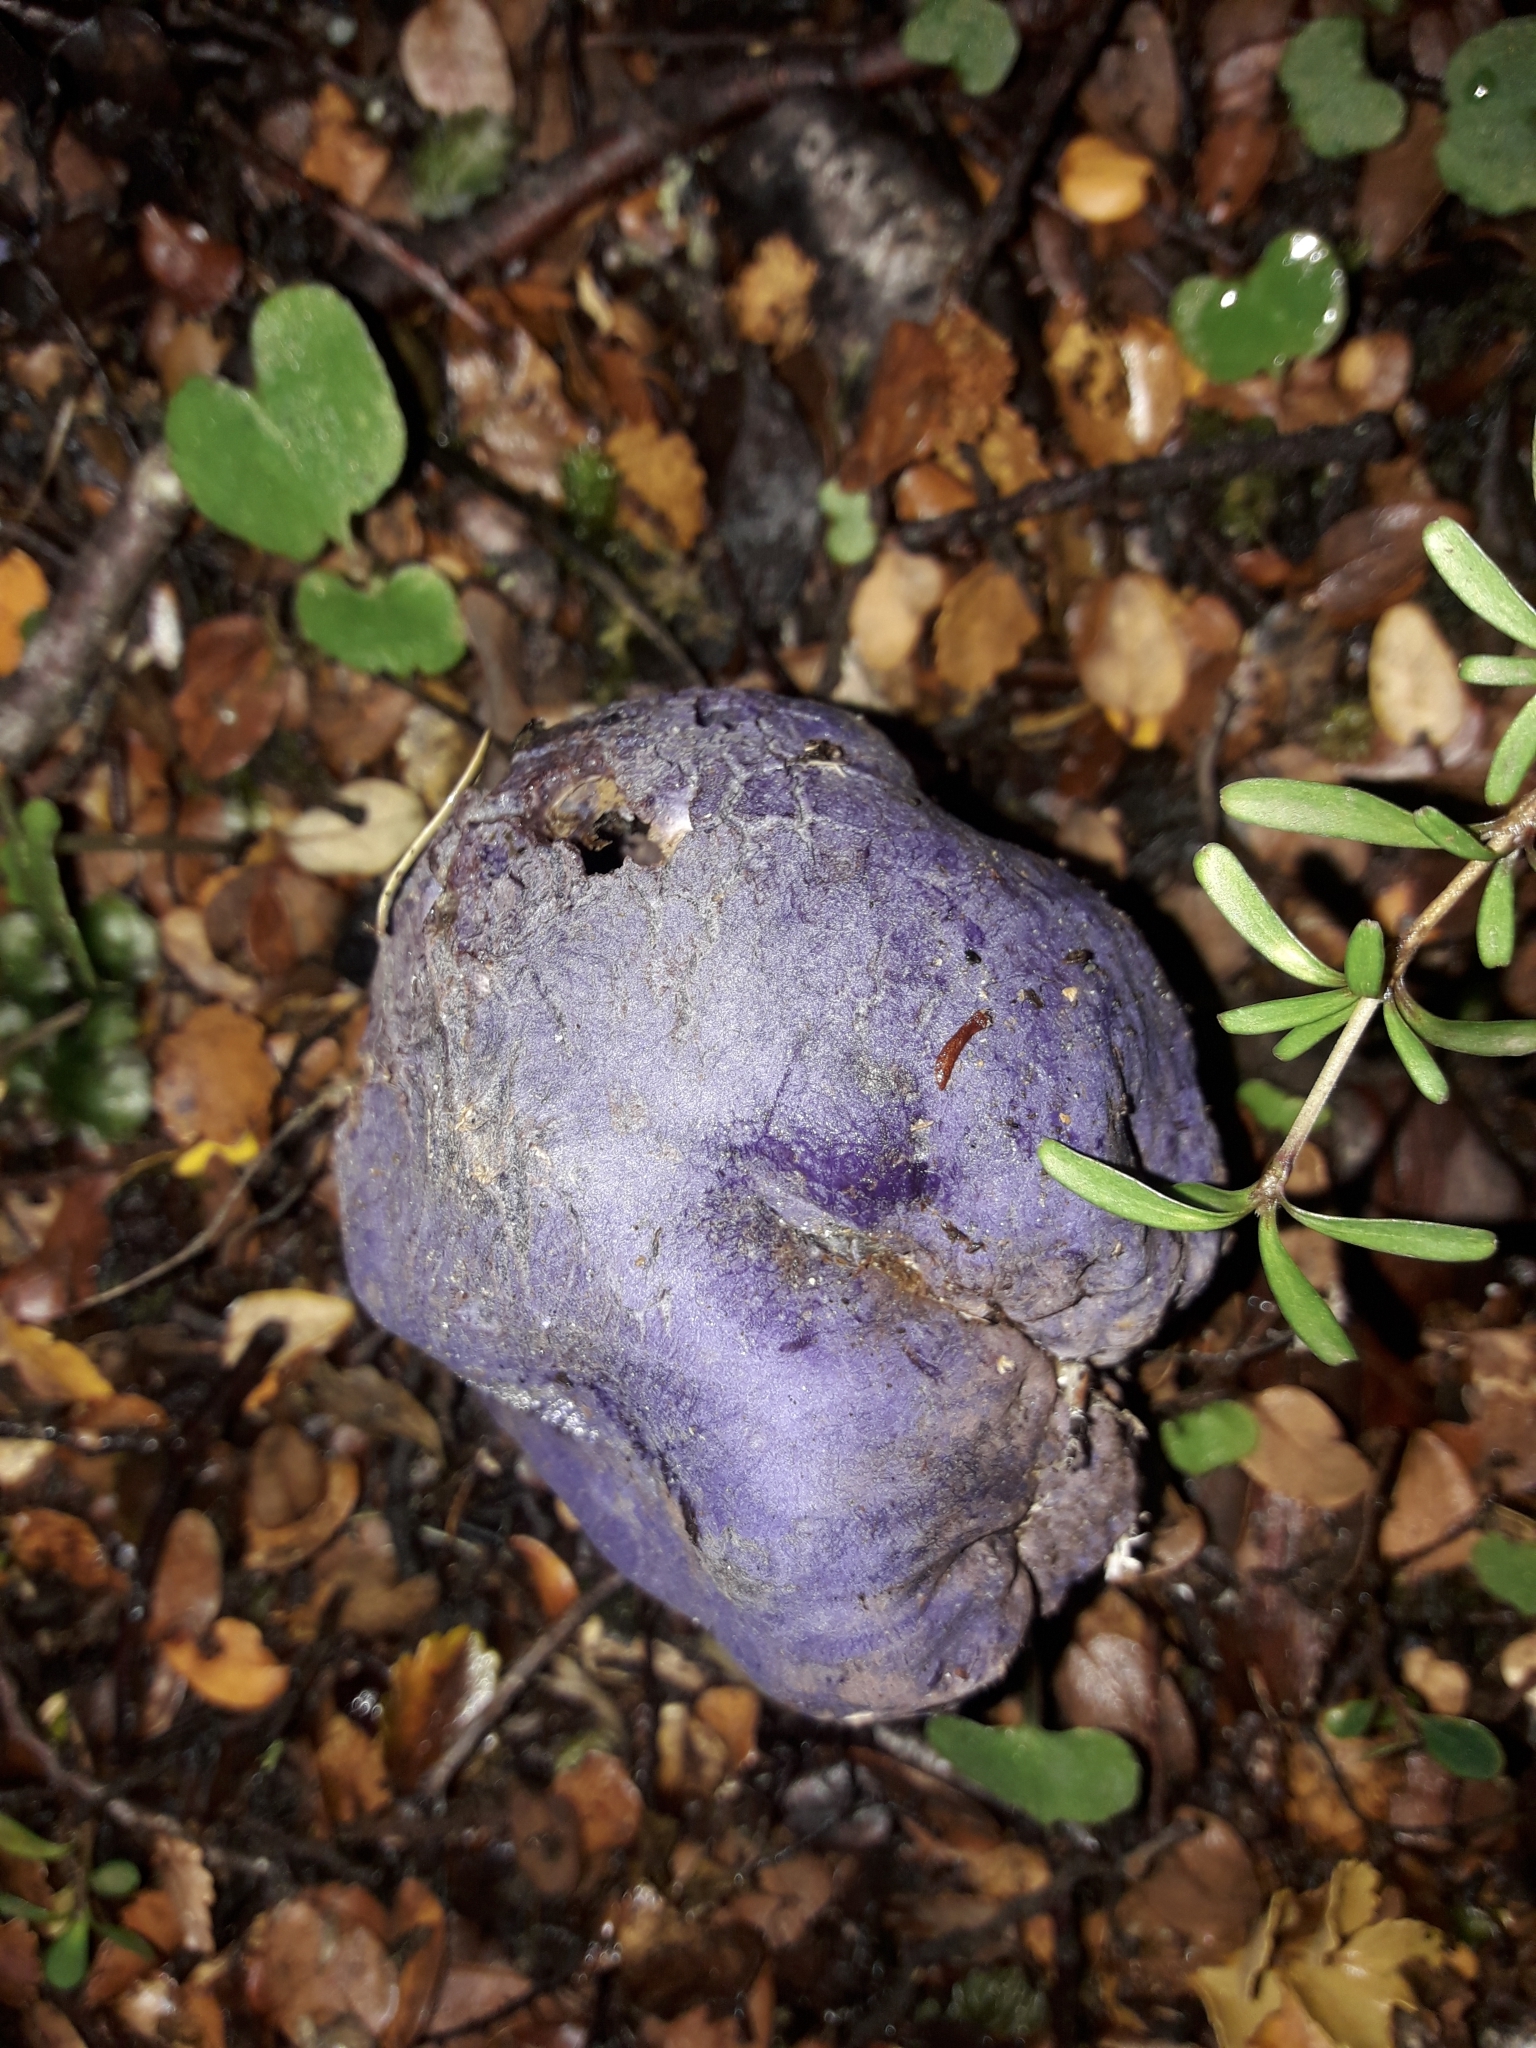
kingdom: Fungi
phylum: Basidiomycota
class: Agaricomycetes
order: Hysterangiales
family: Gallaceaceae
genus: Gallacea
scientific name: Gallacea scleroderma
